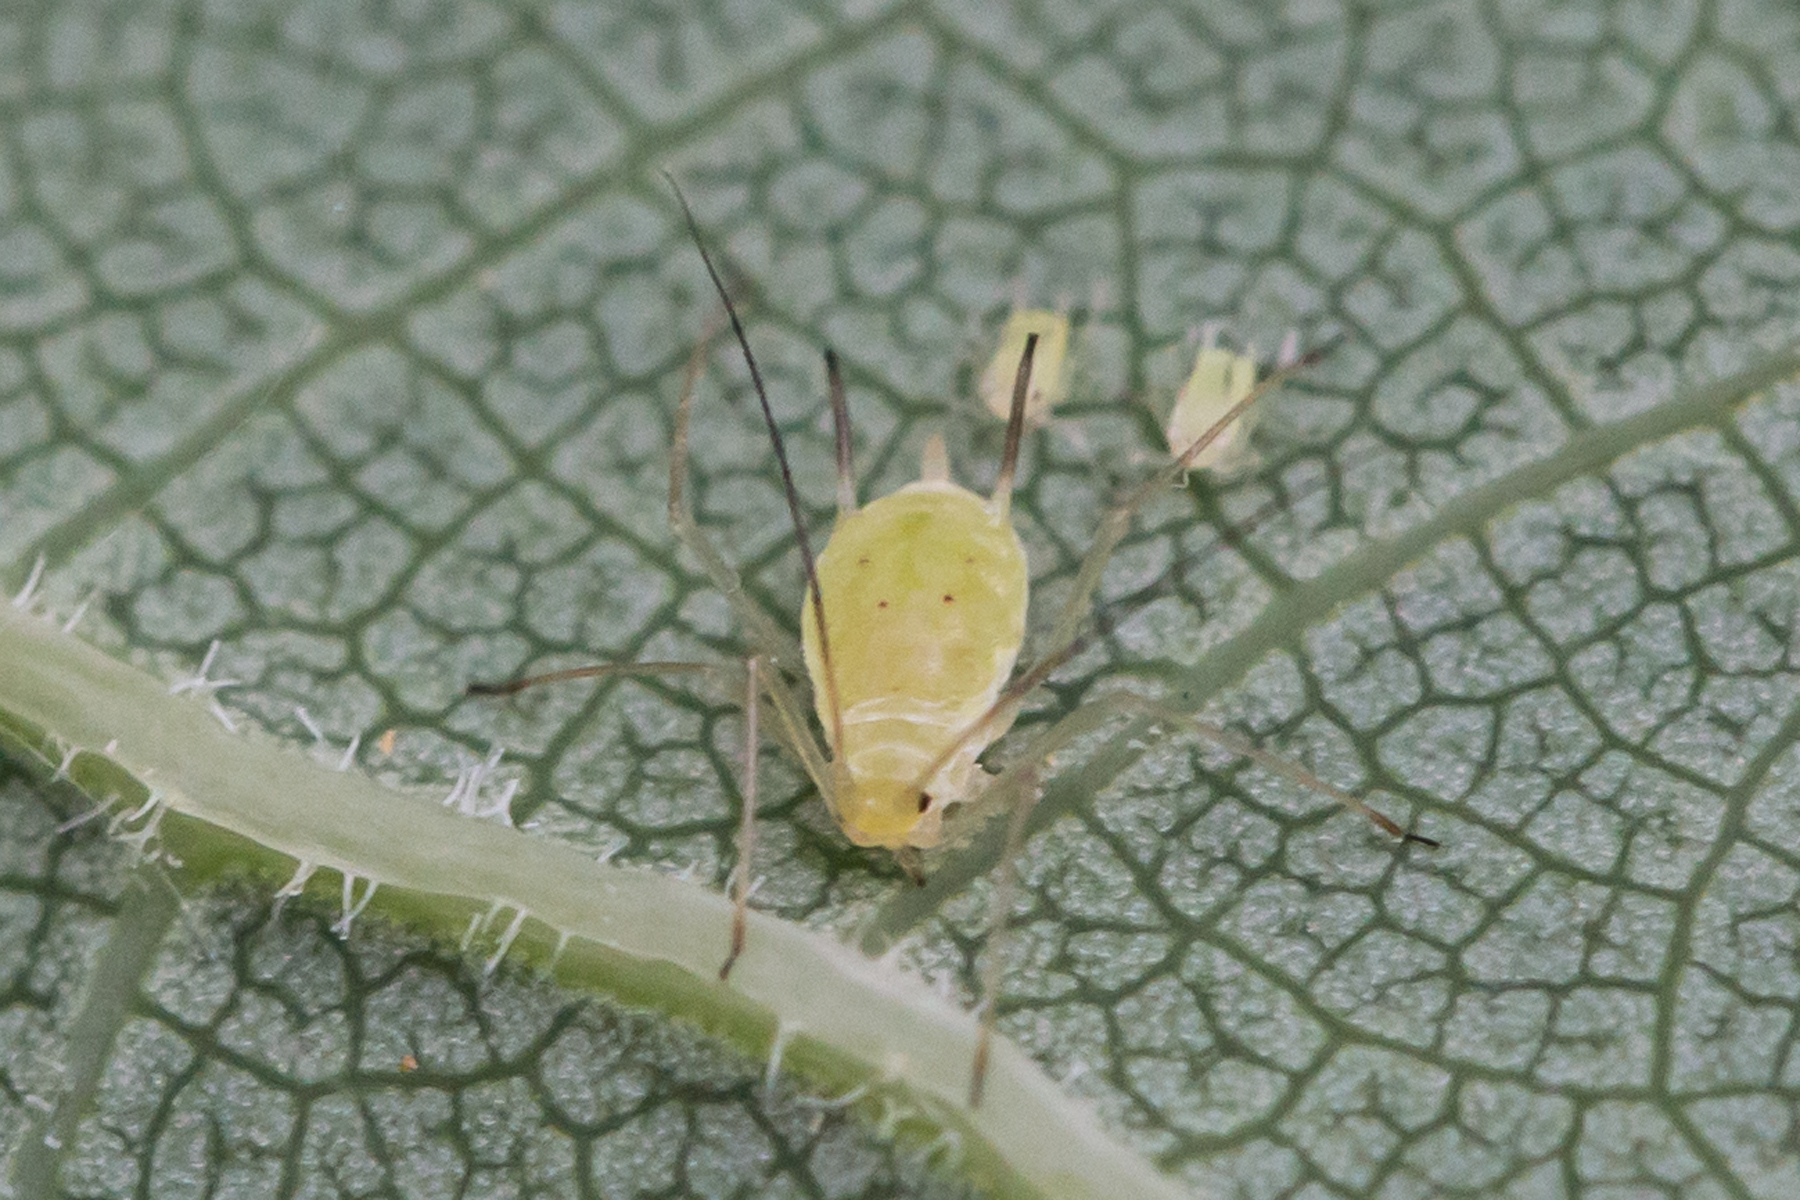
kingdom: Animalia
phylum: Arthropoda
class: Insecta
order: Hemiptera
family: Aphididae
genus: Illinoia
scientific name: Illinoia liriodendri
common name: Tuliptree aphid
